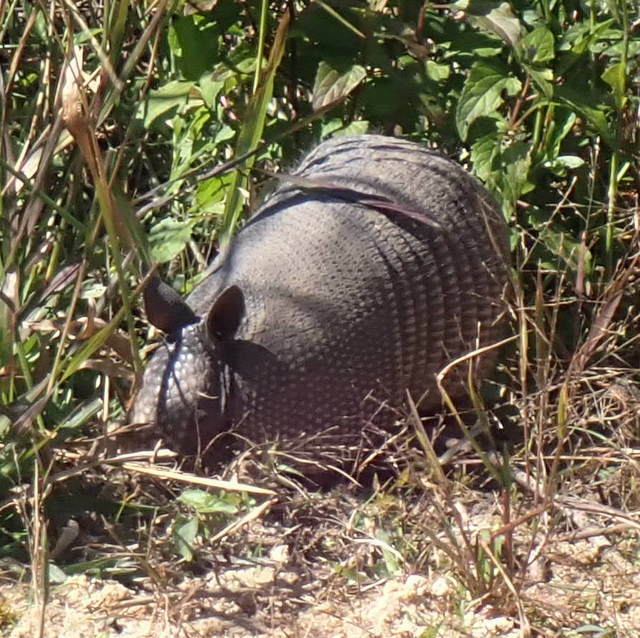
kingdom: Animalia
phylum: Chordata
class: Mammalia
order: Cingulata
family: Dasypodidae
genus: Dasypus
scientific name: Dasypus novemcinctus
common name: Nine-banded armadillo
